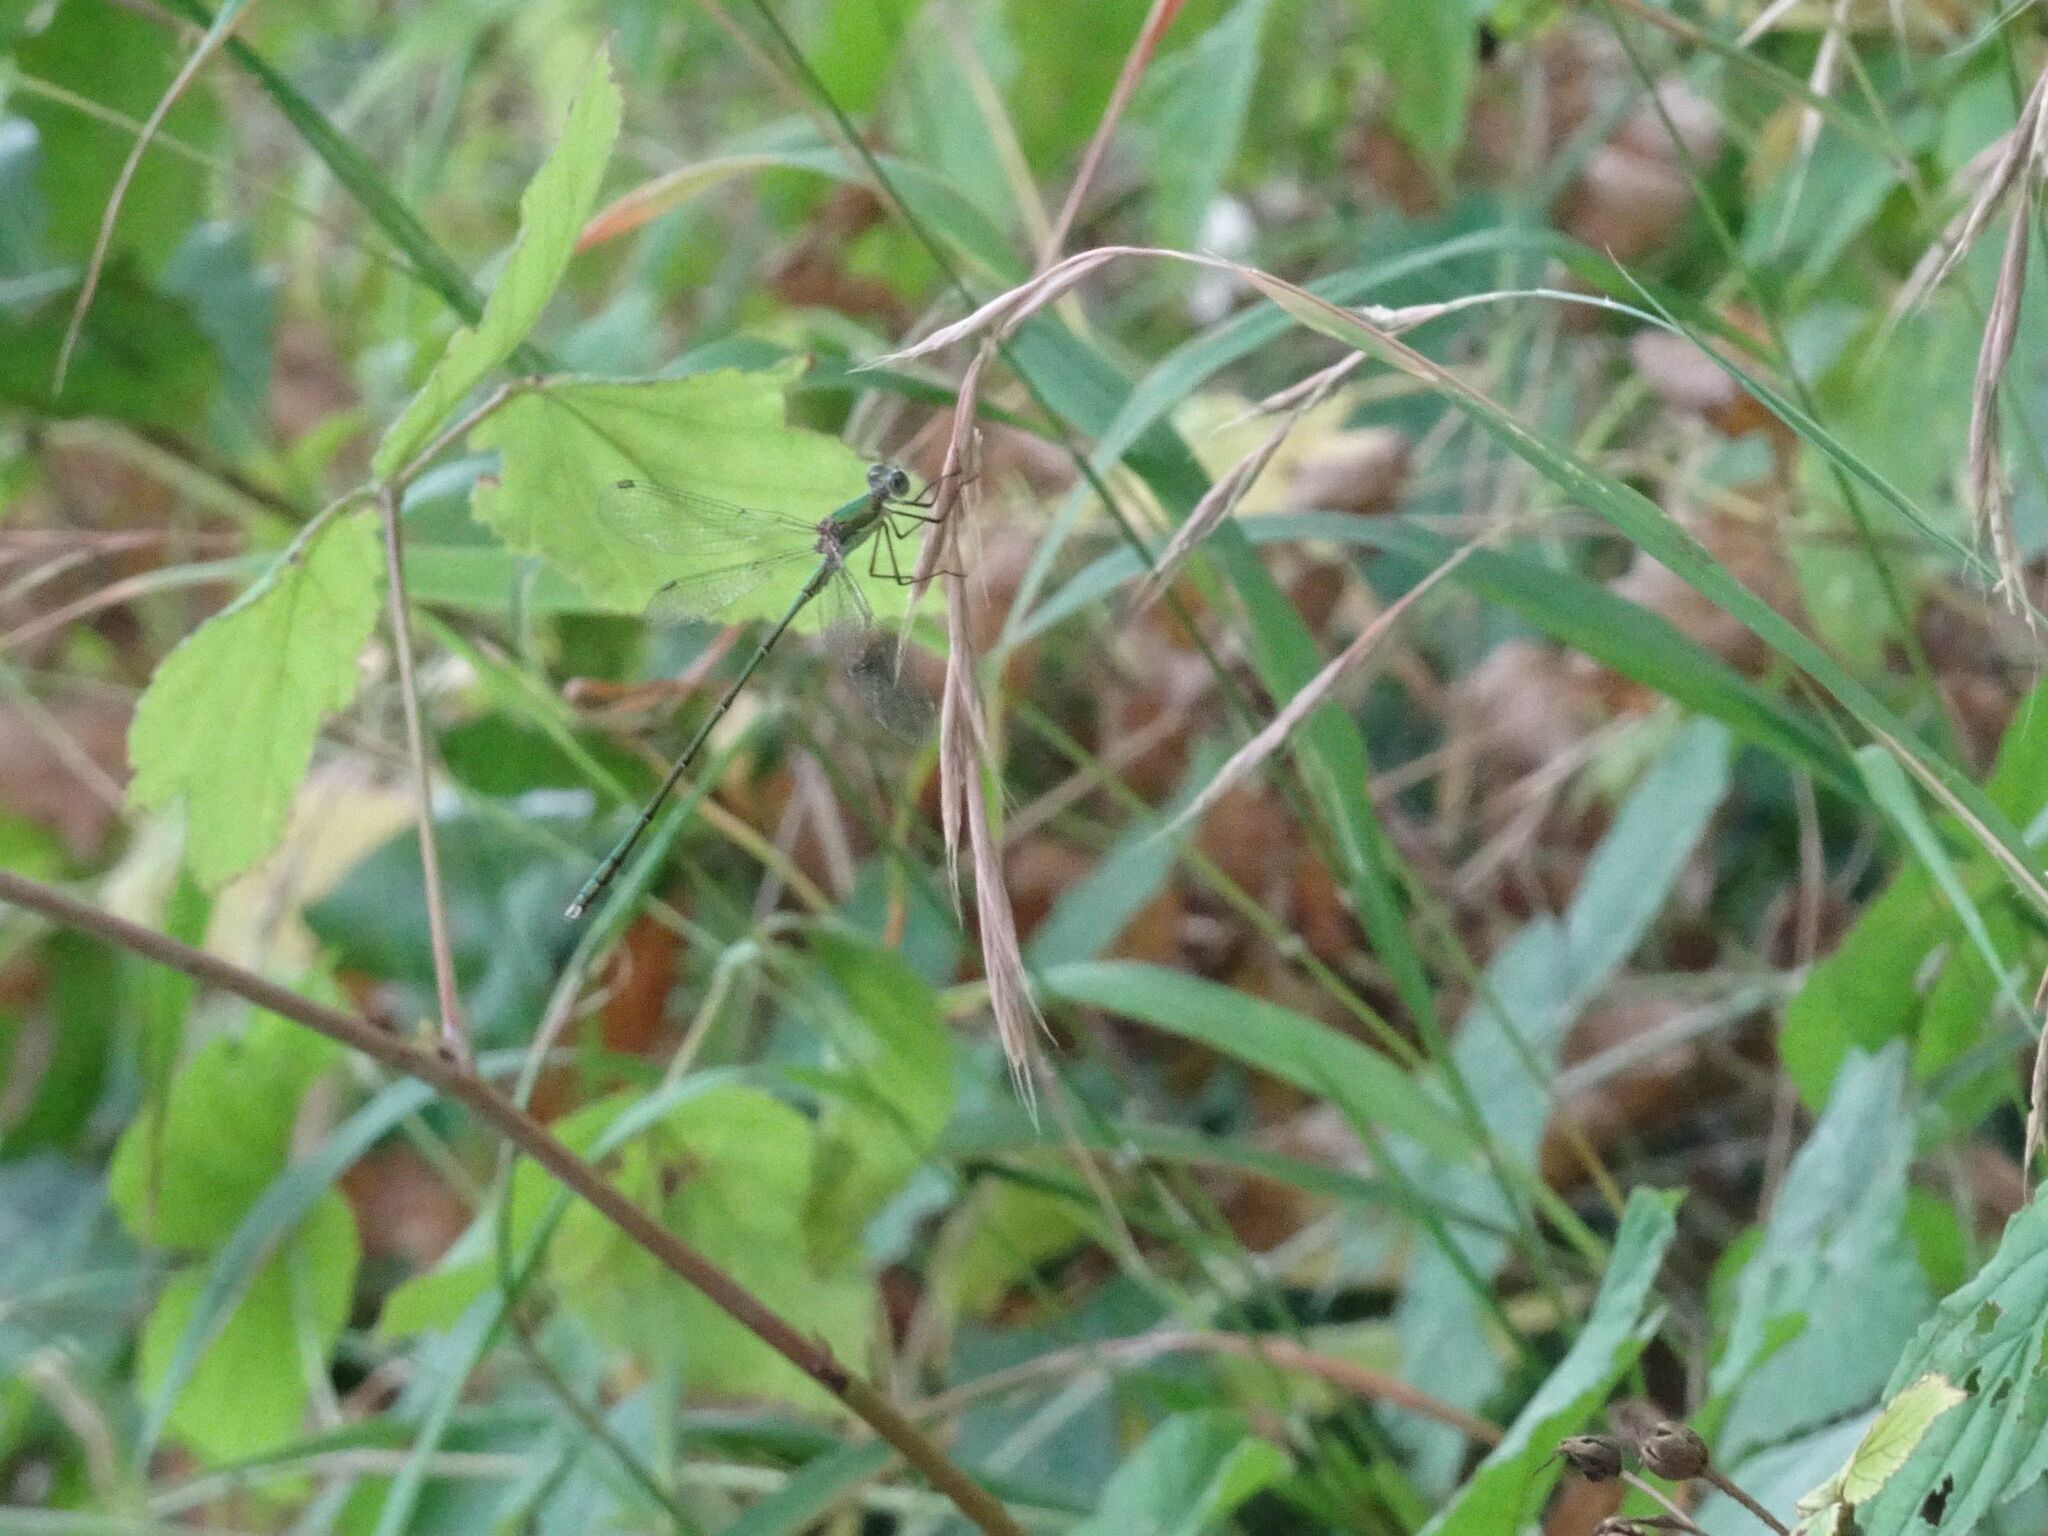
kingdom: Animalia
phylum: Arthropoda
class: Insecta
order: Odonata
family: Lestidae
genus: Chalcolestes
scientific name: Chalcolestes viridis
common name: Green emerald damselfly
